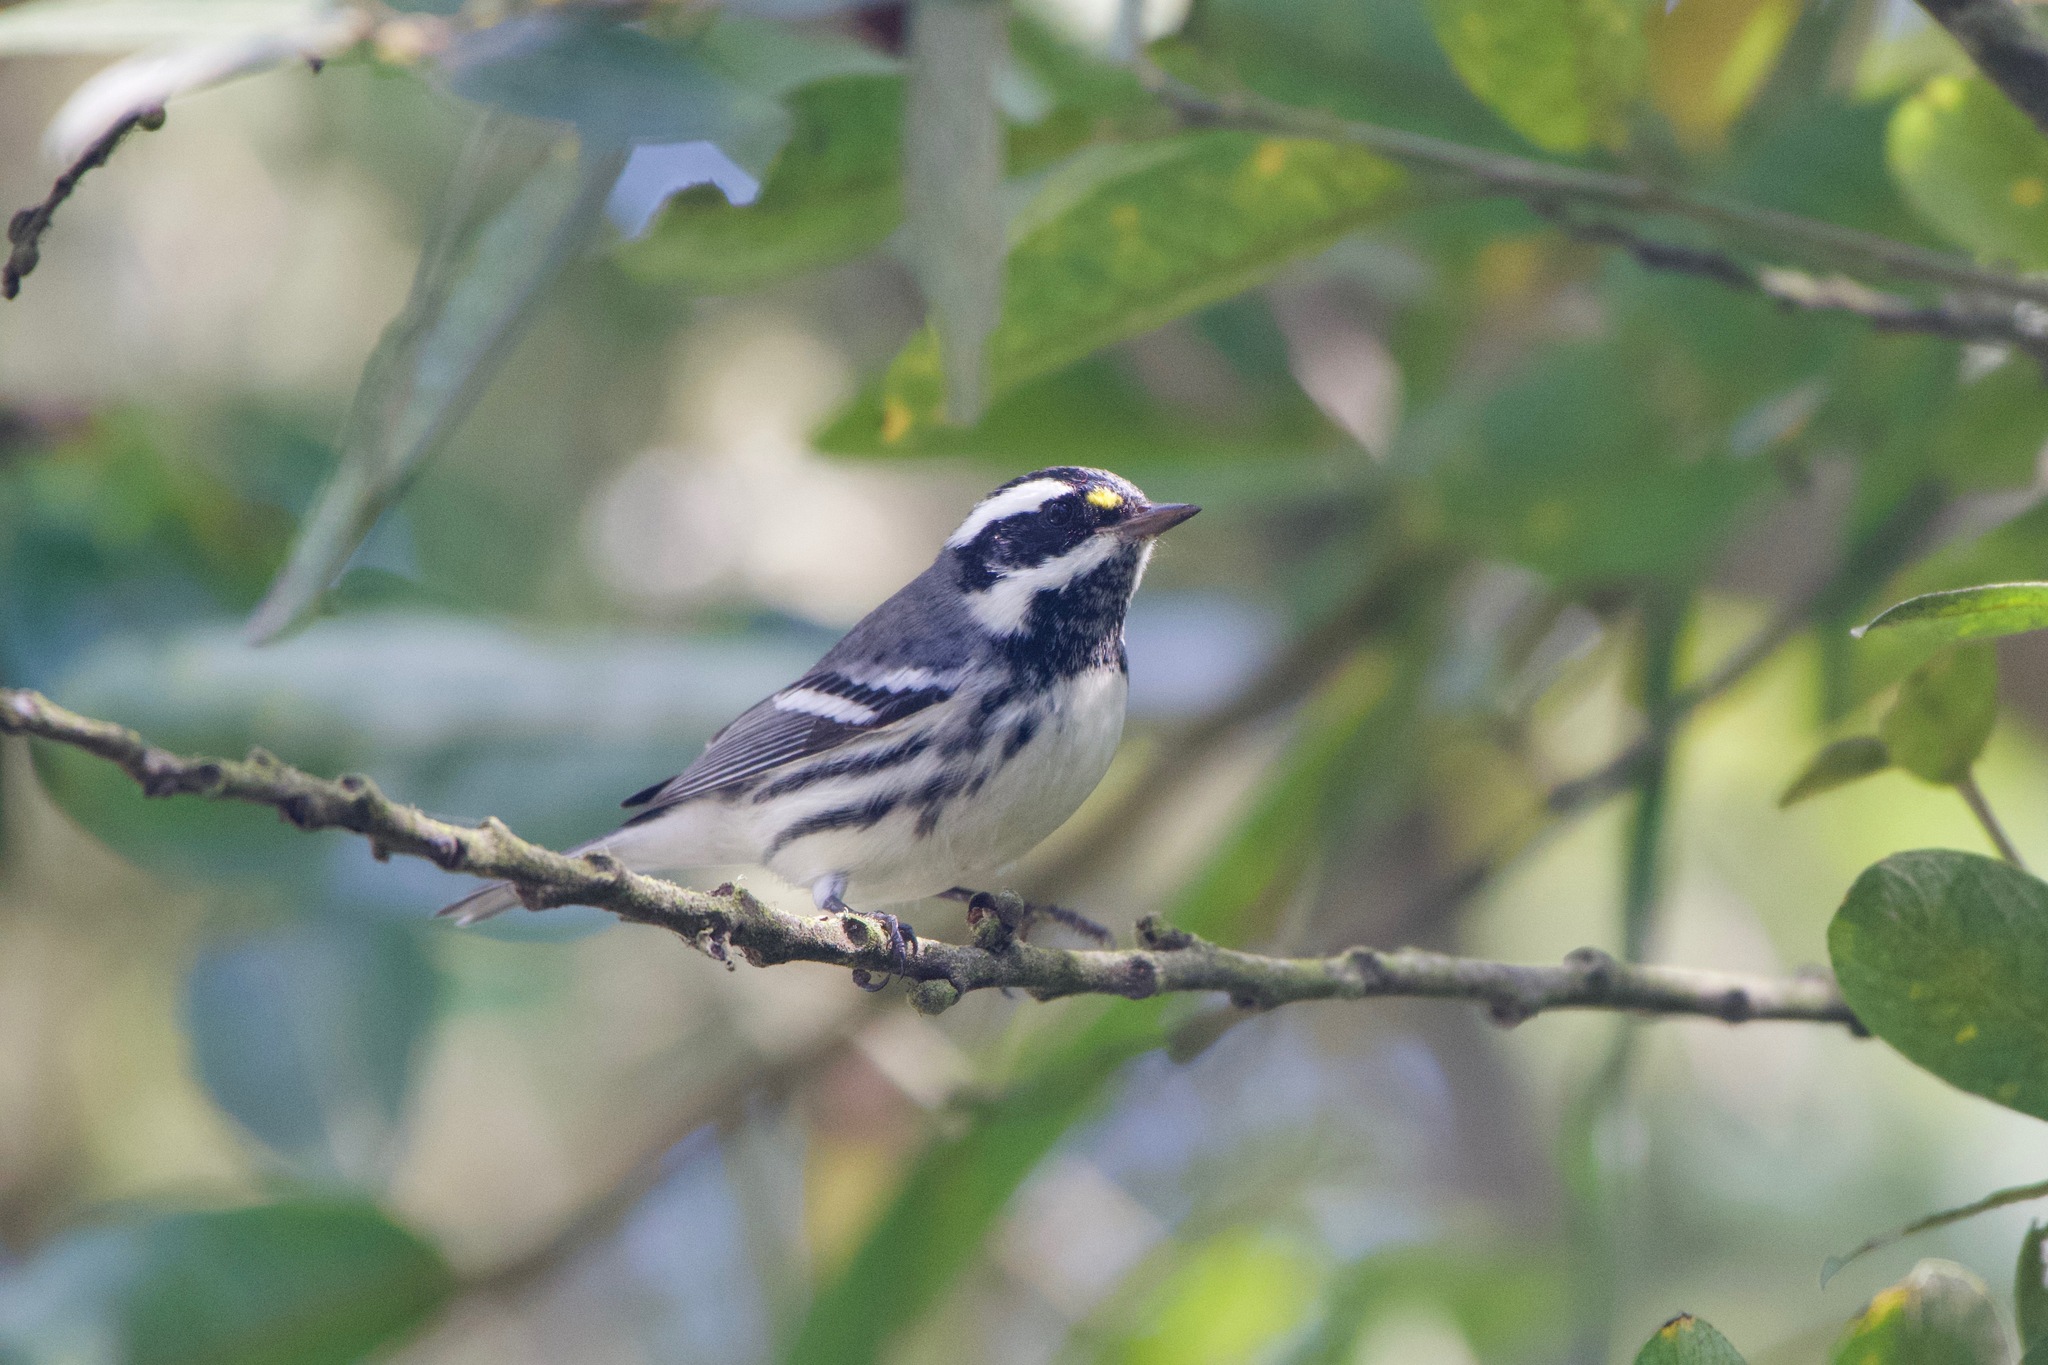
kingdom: Animalia
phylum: Chordata
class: Aves
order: Passeriformes
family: Parulidae
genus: Setophaga
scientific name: Setophaga nigrescens
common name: Black-throated gray warbler
